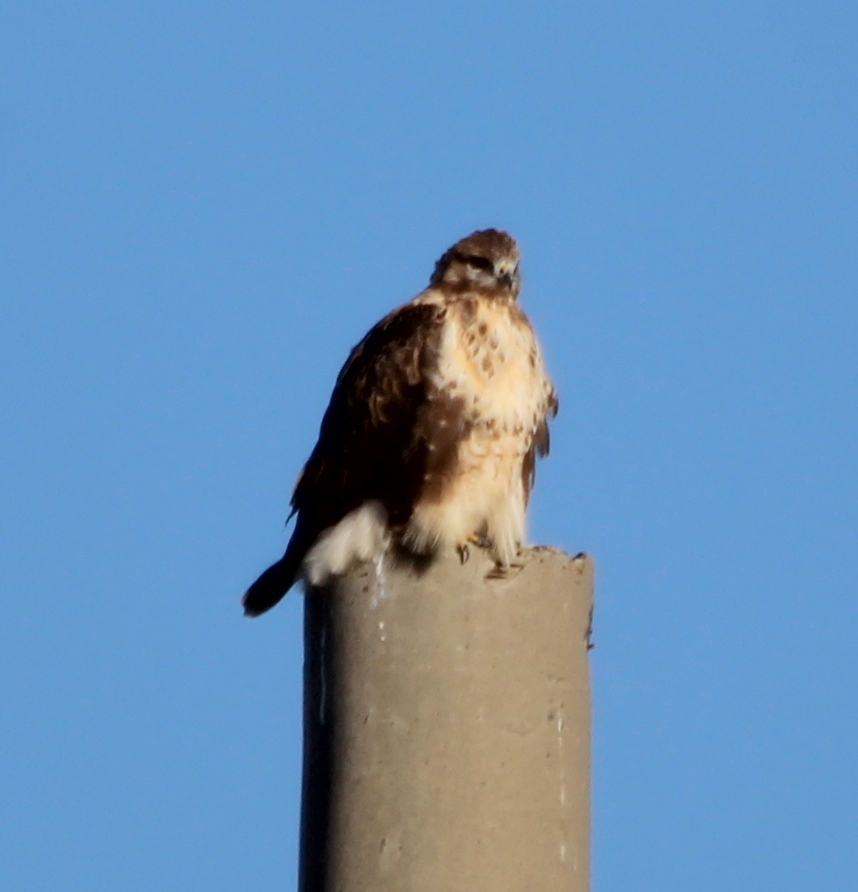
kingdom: Animalia
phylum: Chordata
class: Aves
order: Accipitriformes
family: Accipitridae
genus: Buteo
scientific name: Buteo hemilasius
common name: Upland buzzard
